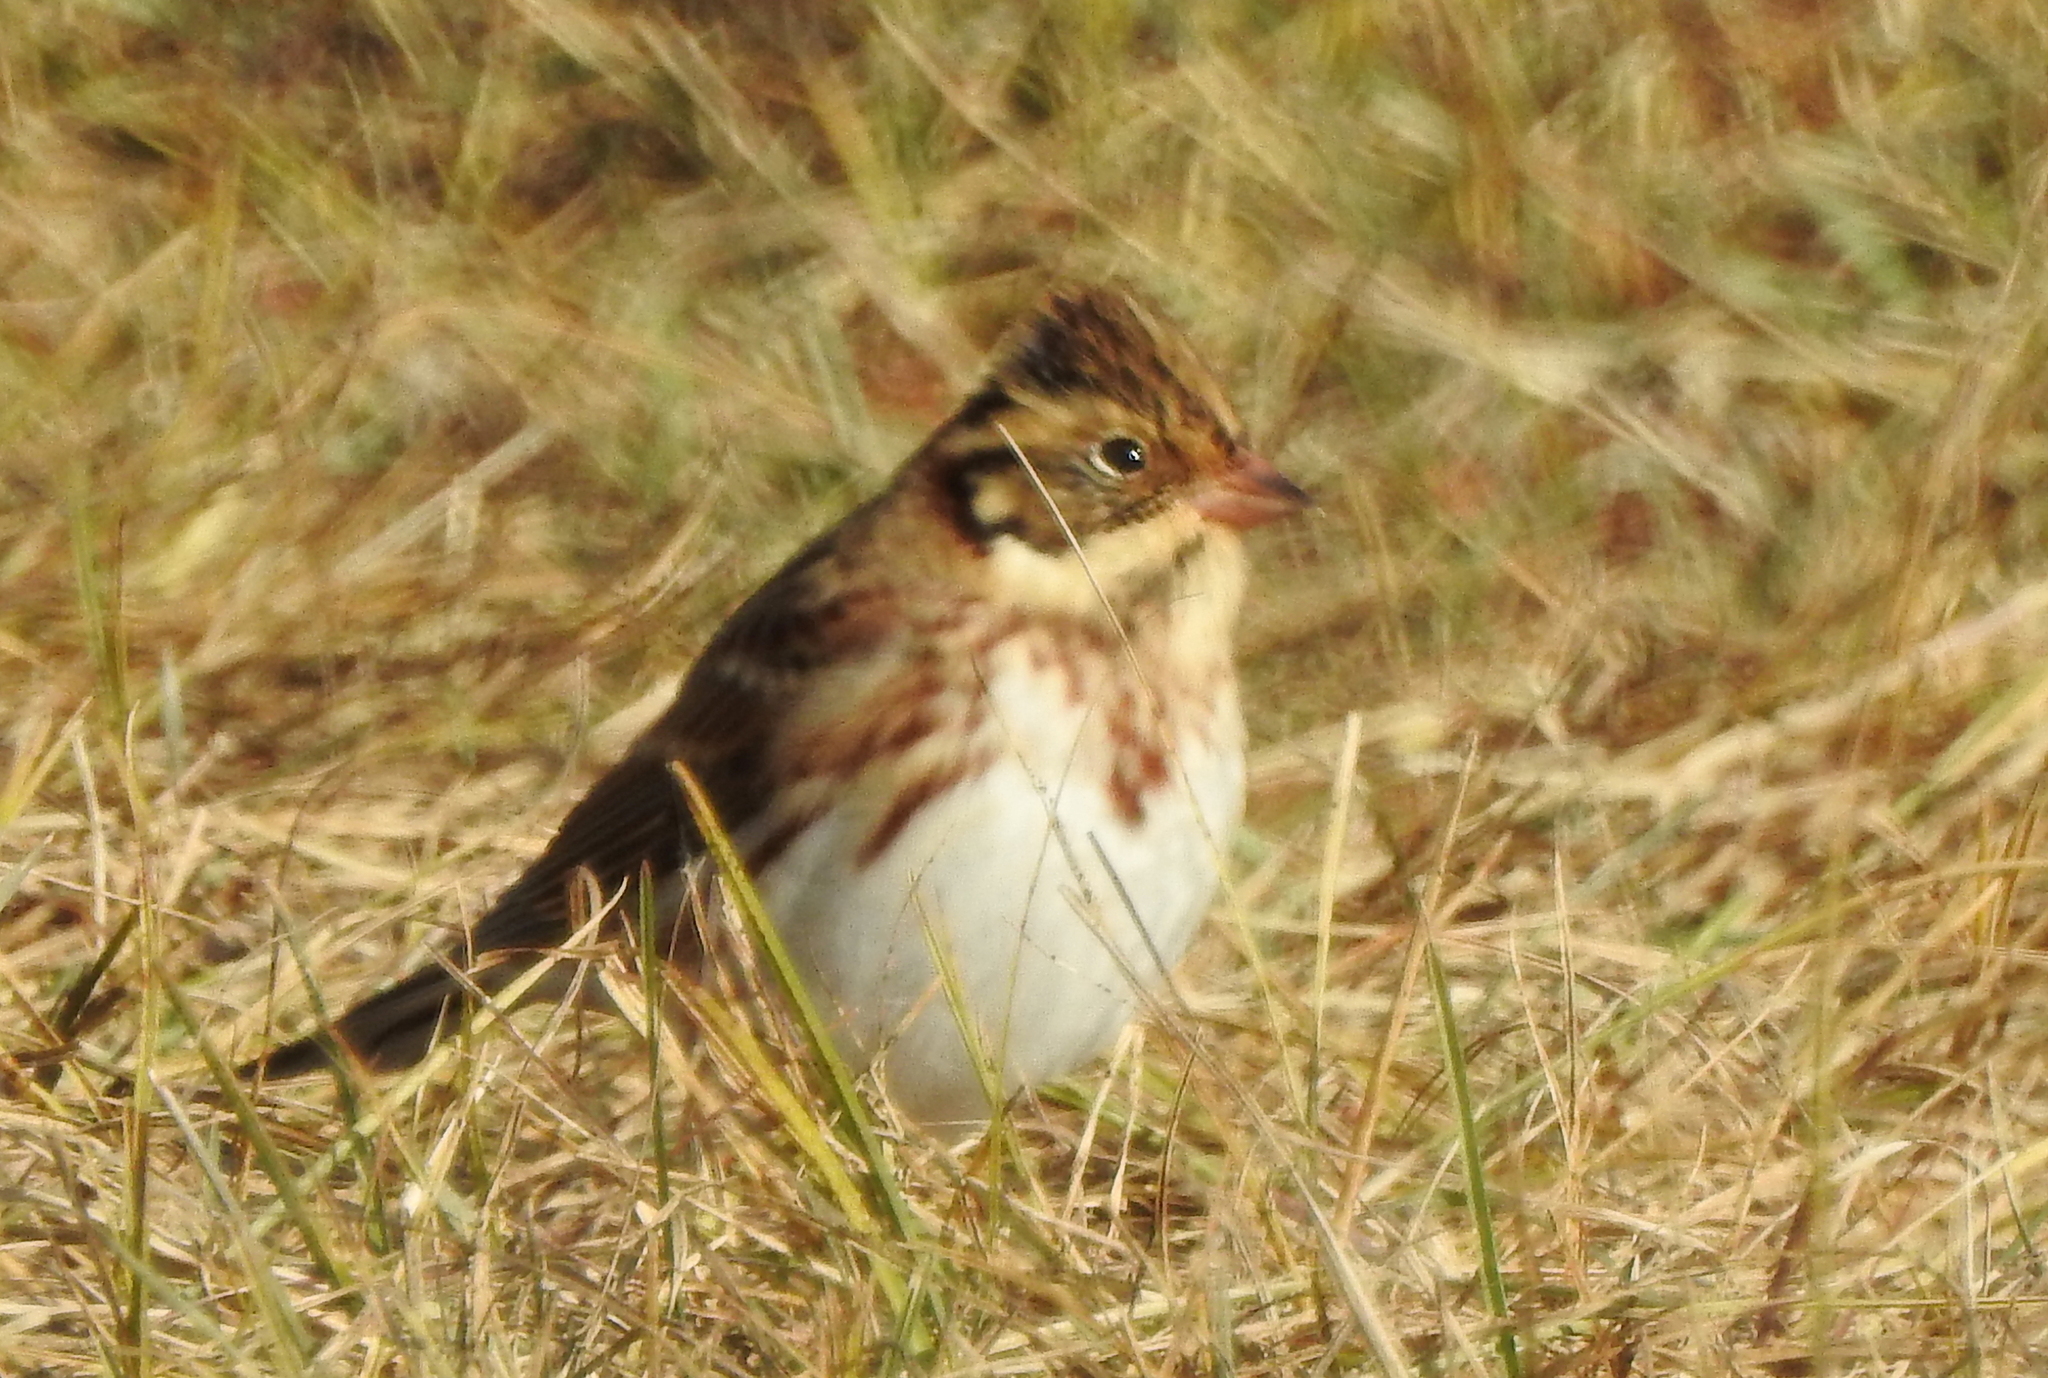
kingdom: Animalia
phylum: Chordata
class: Aves
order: Passeriformes
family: Emberizidae
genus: Emberiza
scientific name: Emberiza rustica
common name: Rustic bunting
